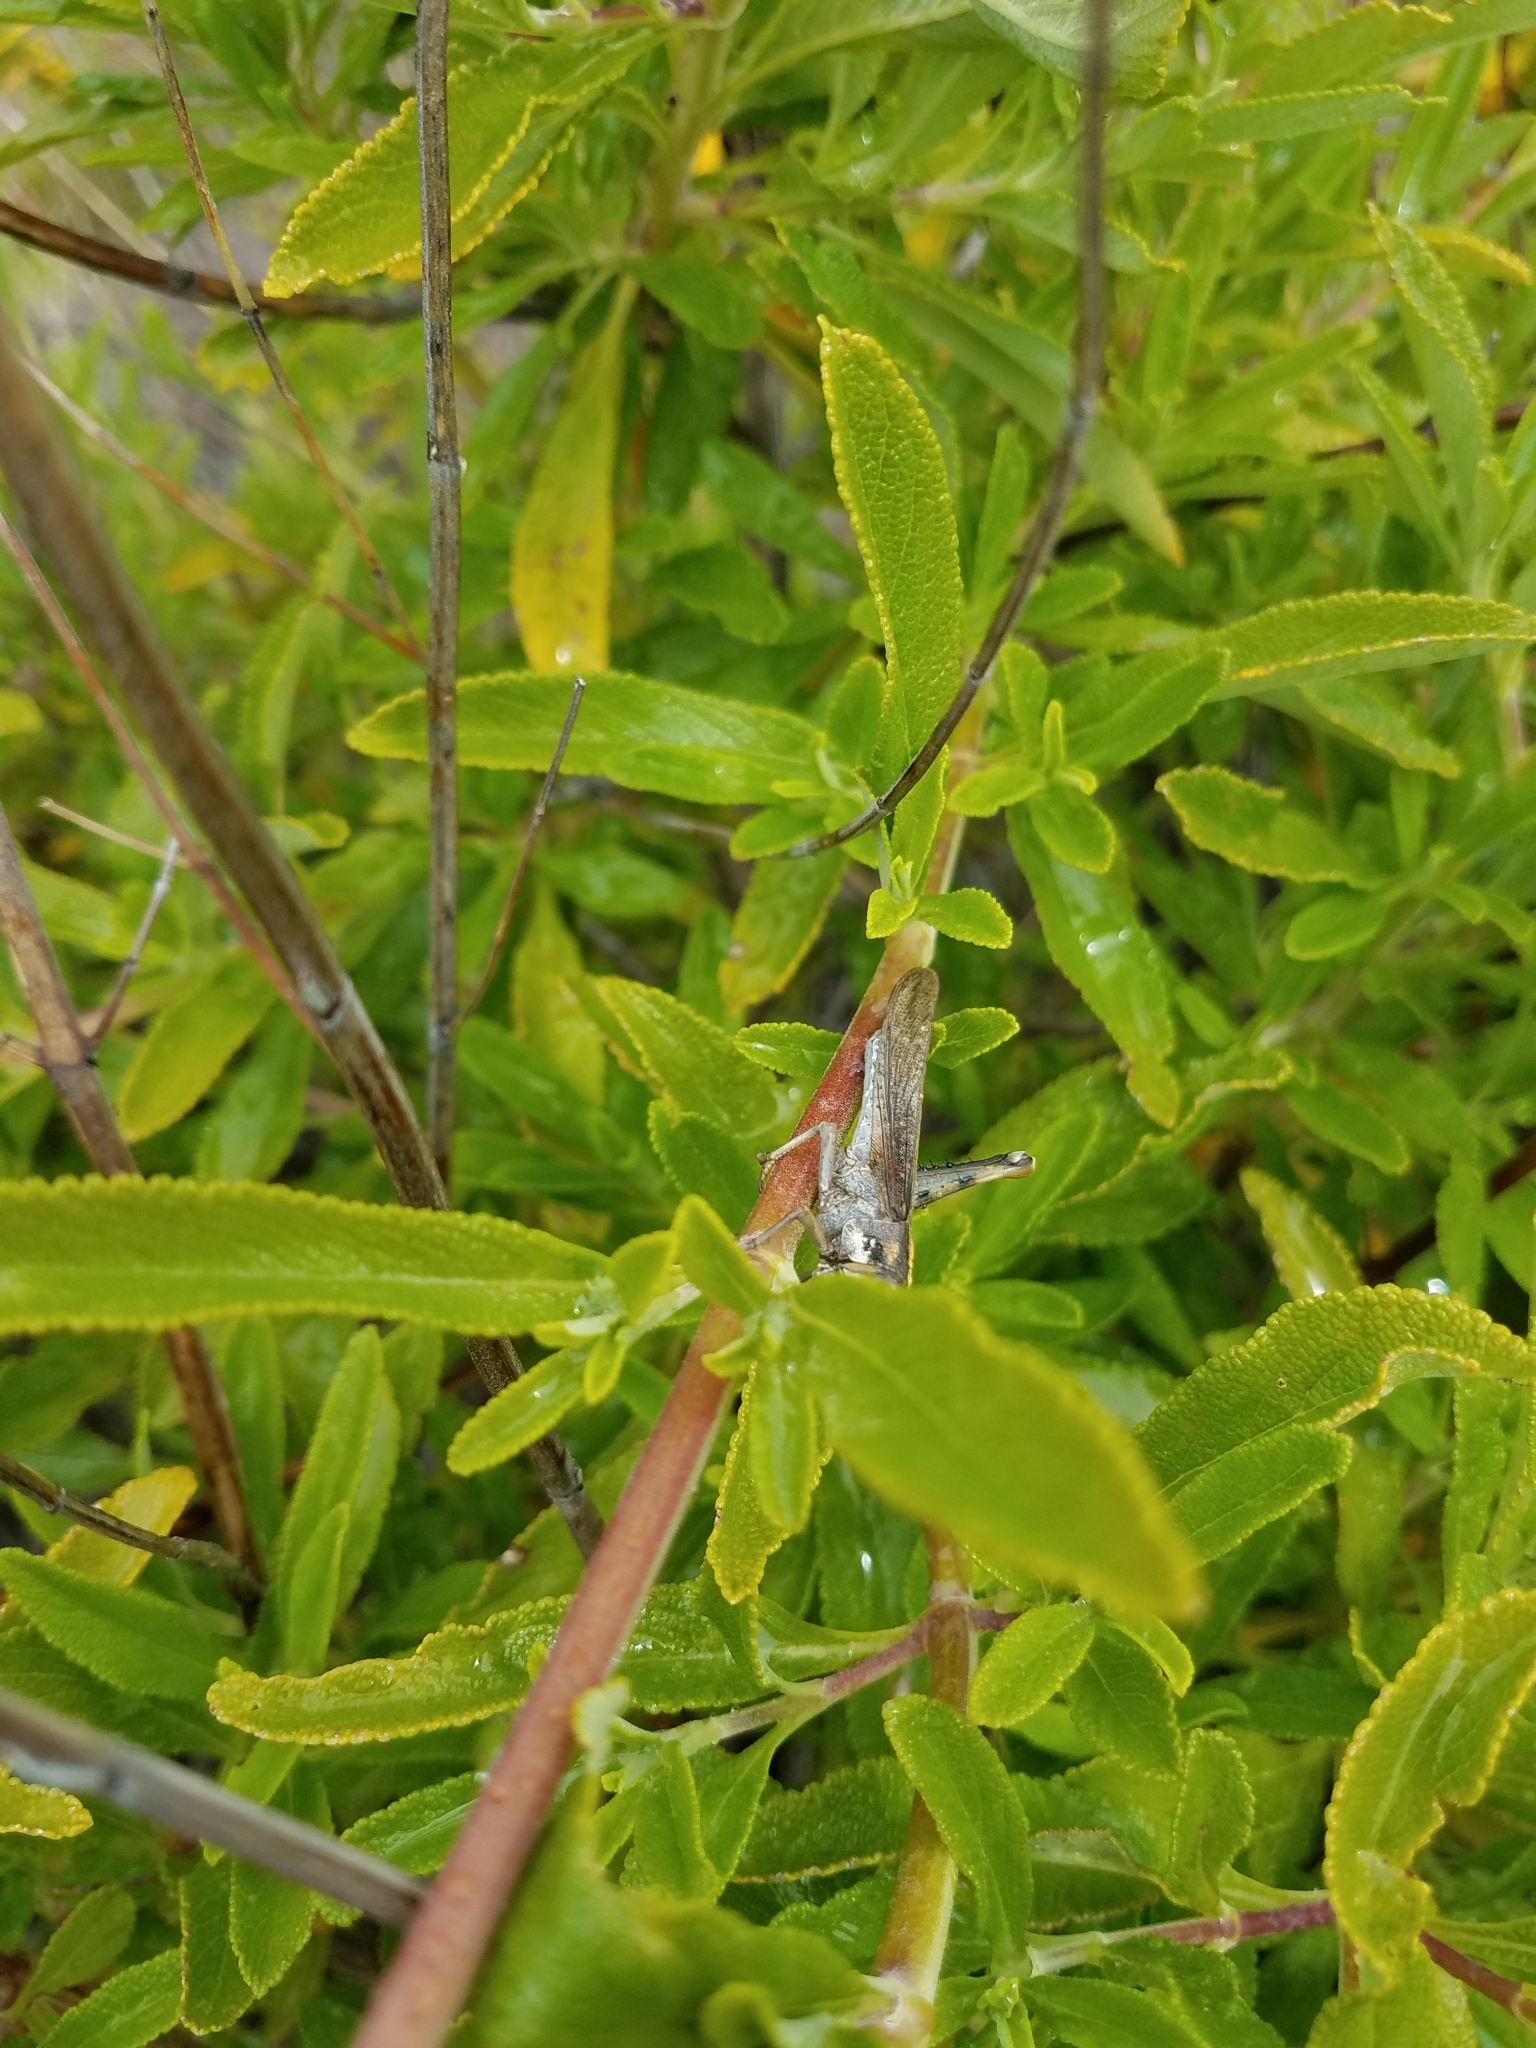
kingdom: Animalia
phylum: Arthropoda
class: Insecta
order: Orthoptera
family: Acrididae
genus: Schistocerca
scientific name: Schistocerca nitens
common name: Vagrant grasshopper
